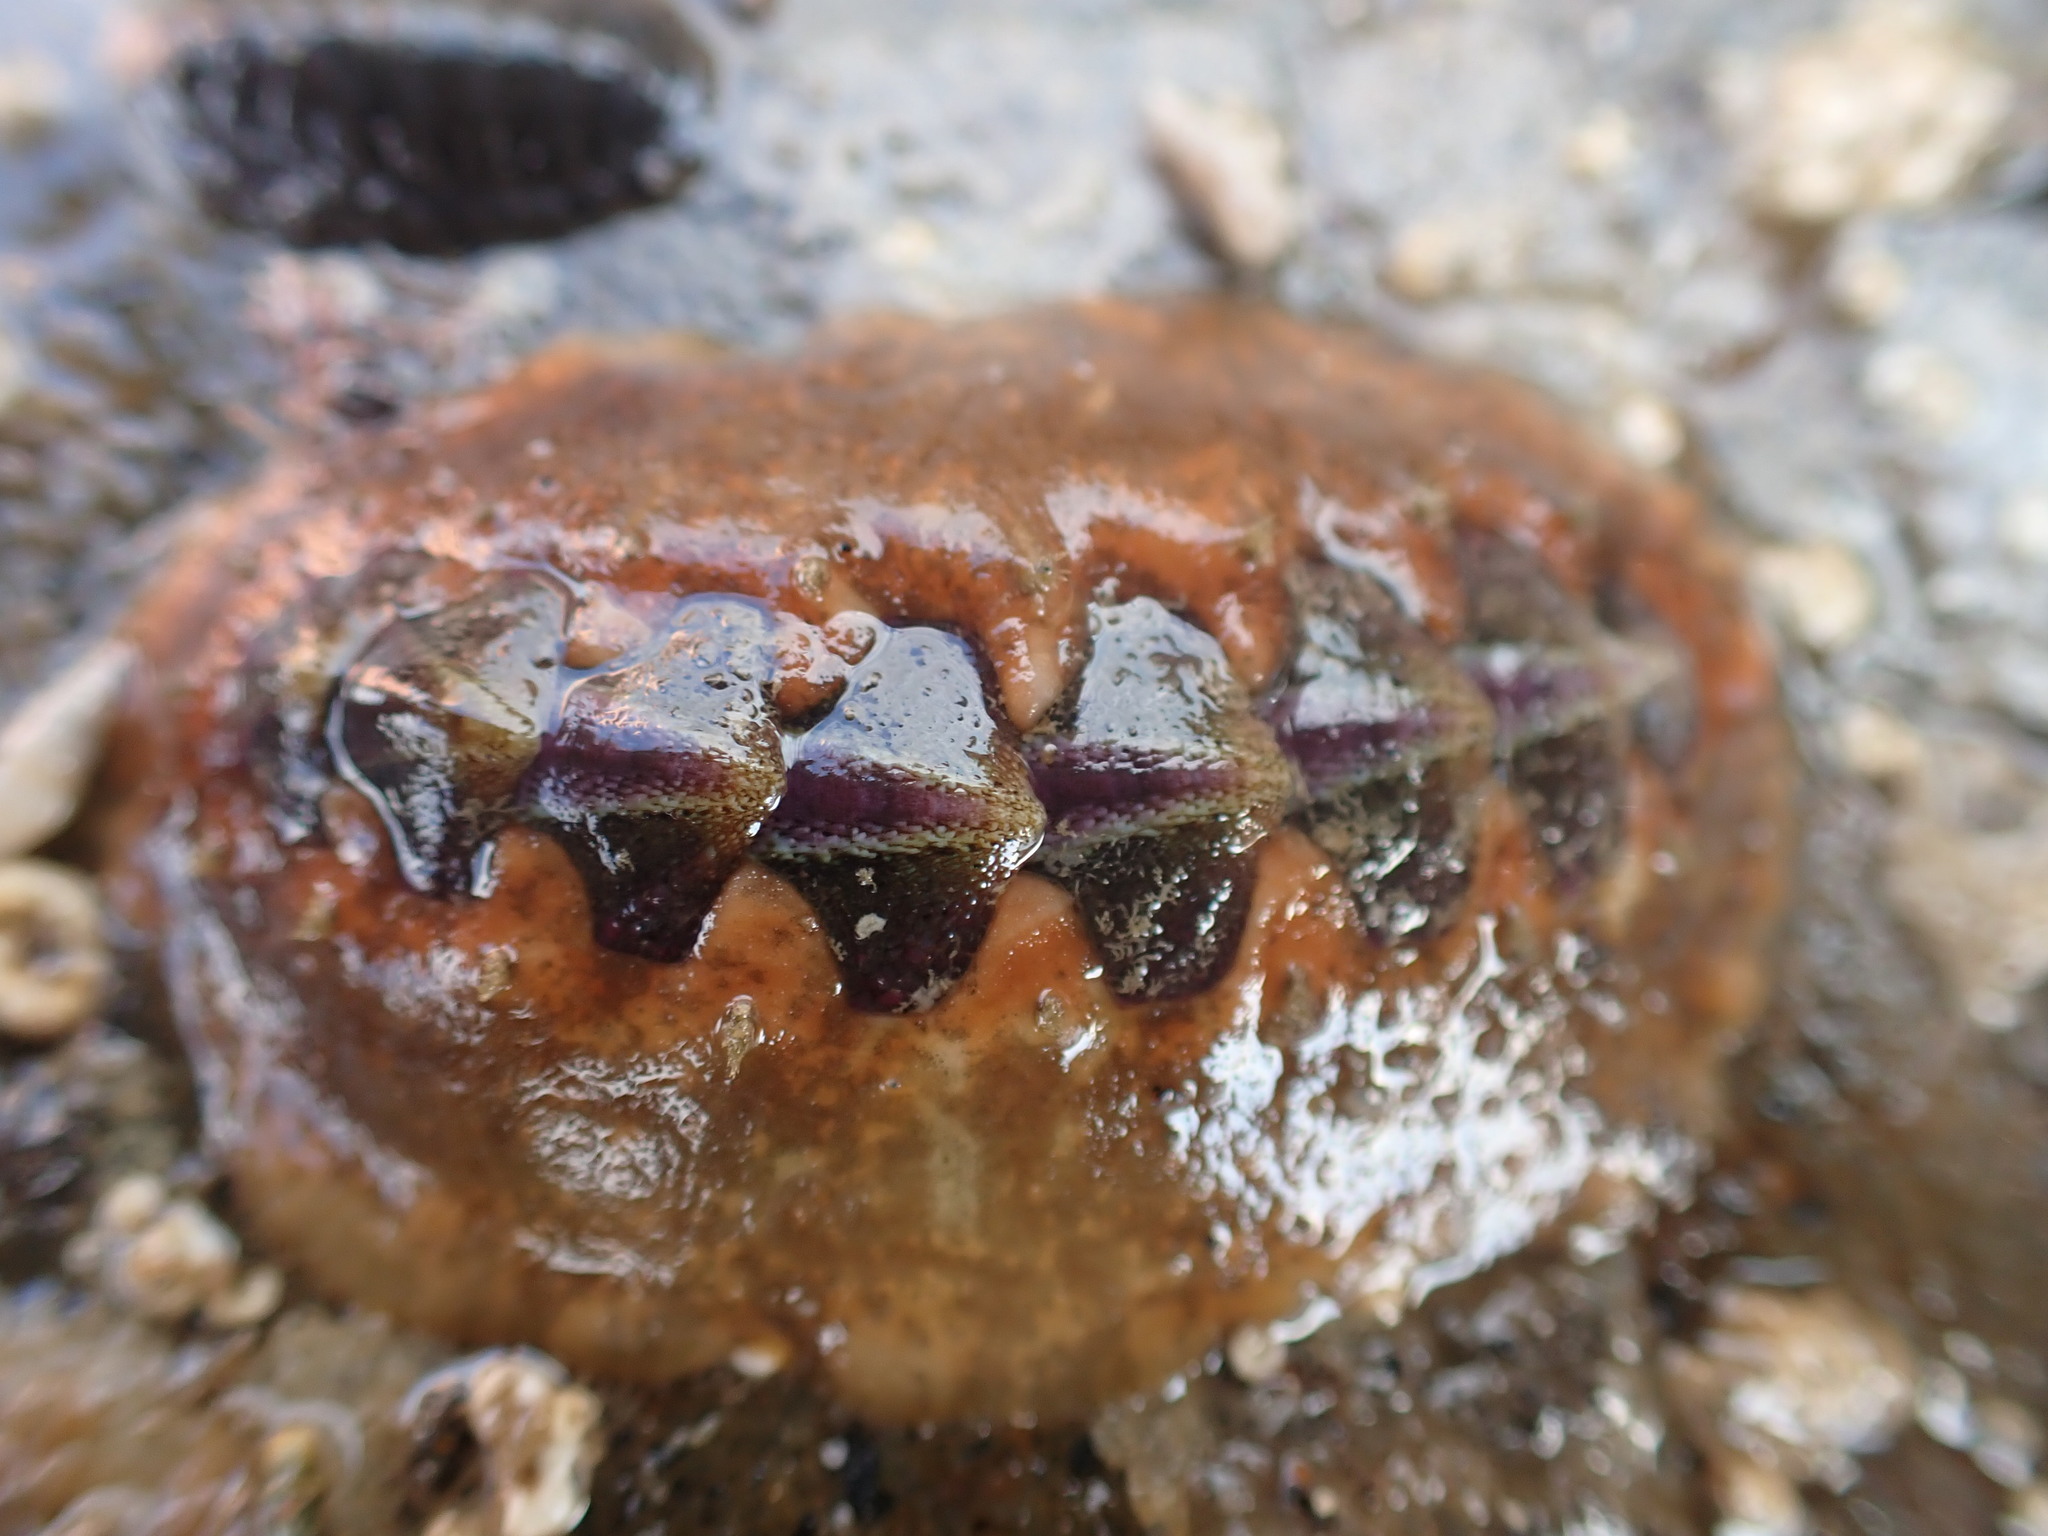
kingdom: Animalia
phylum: Mollusca
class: Polyplacophora
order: Chitonida
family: Acanthochitonidae
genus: Notoplax
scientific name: Notoplax violacea
